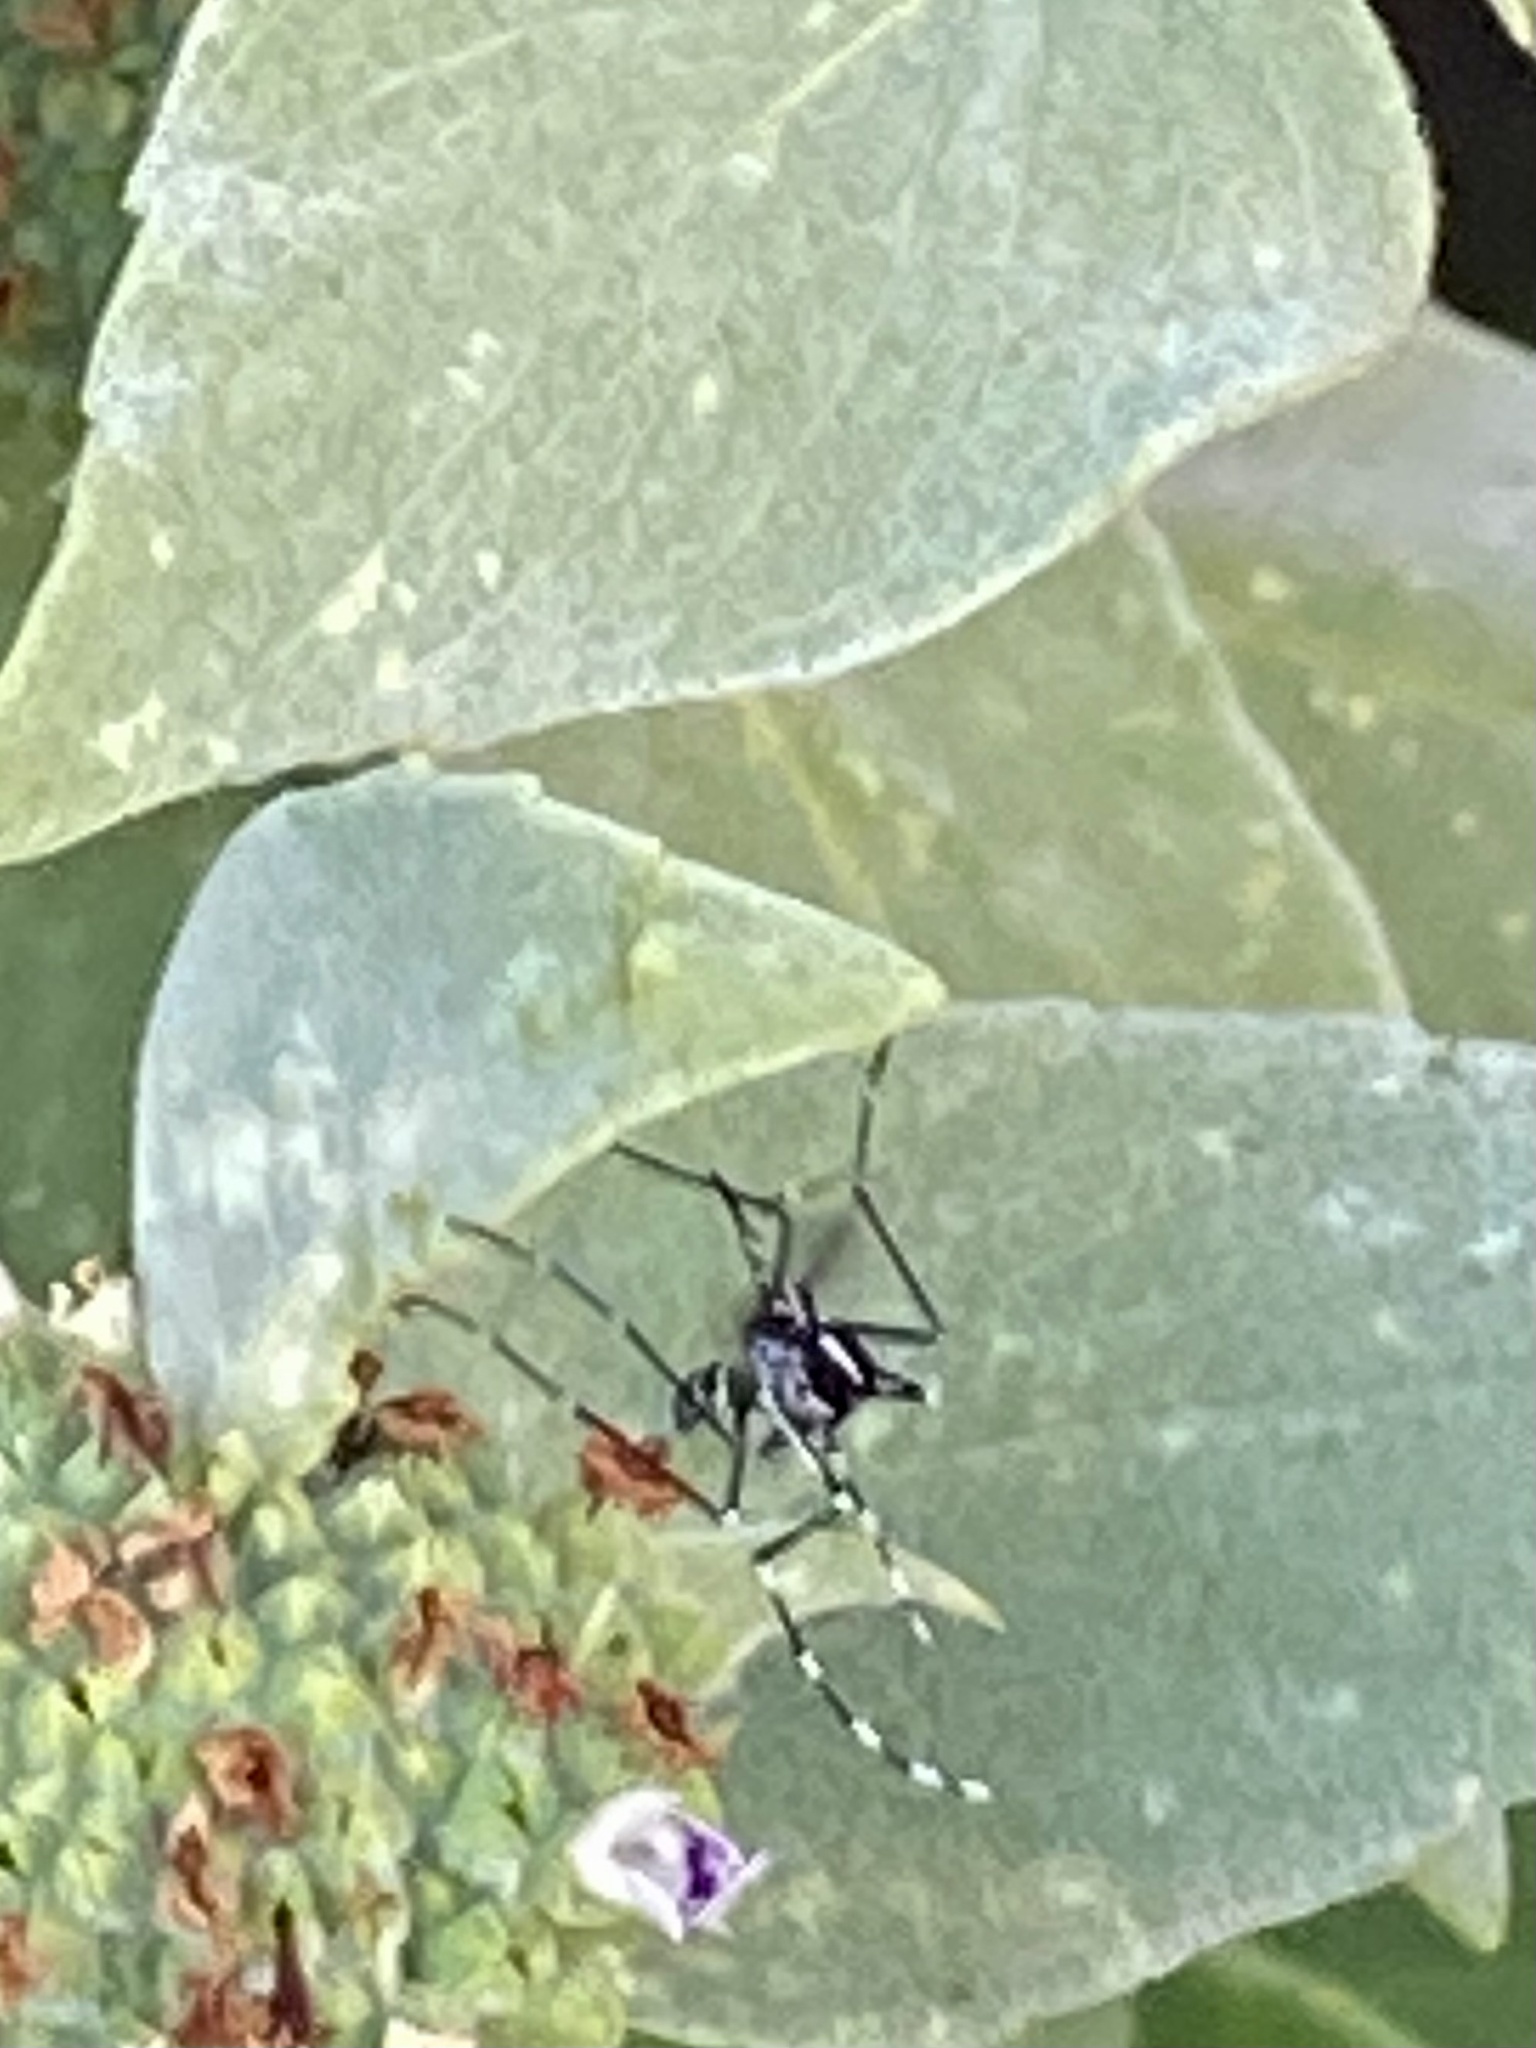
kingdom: Animalia
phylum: Arthropoda
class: Insecta
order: Diptera
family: Culicidae
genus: Aedes
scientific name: Aedes albopictus
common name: Tiger mosquito
